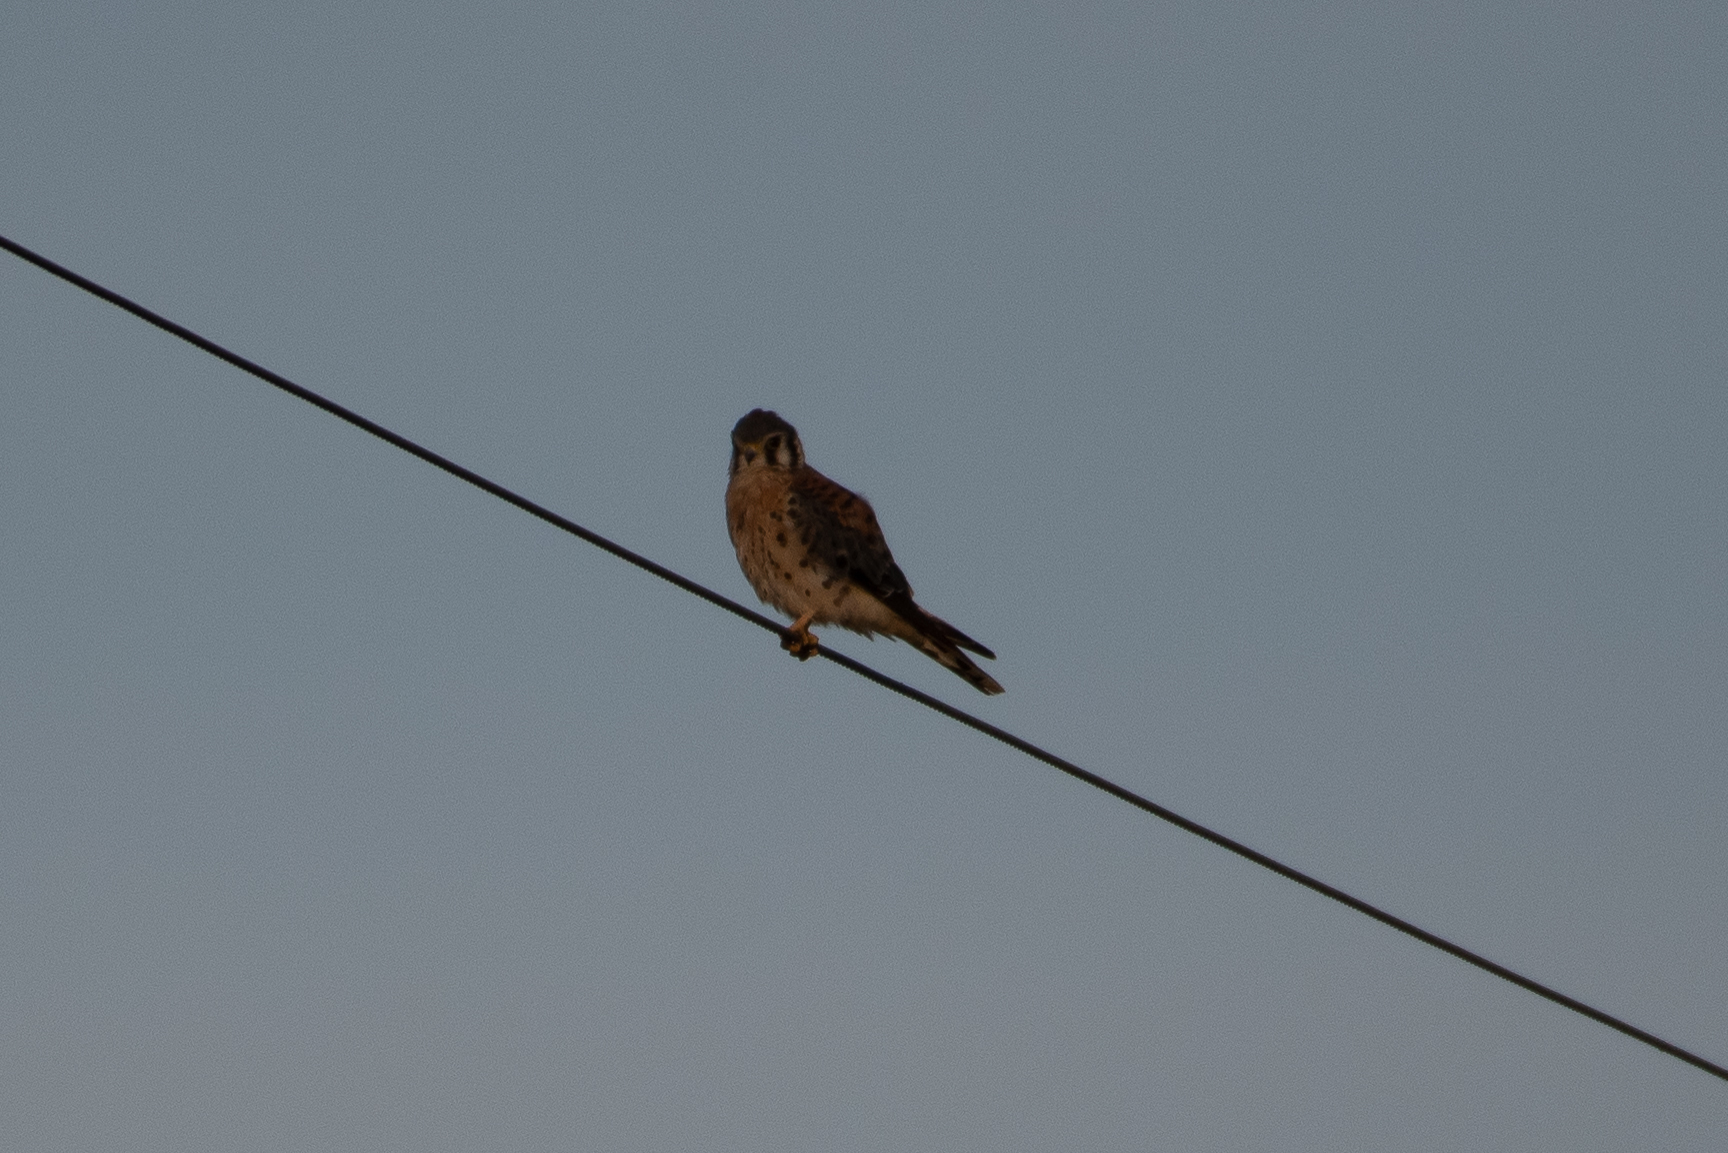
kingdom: Animalia
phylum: Chordata
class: Aves
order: Falconiformes
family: Falconidae
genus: Falco
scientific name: Falco sparverius
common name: American kestrel
